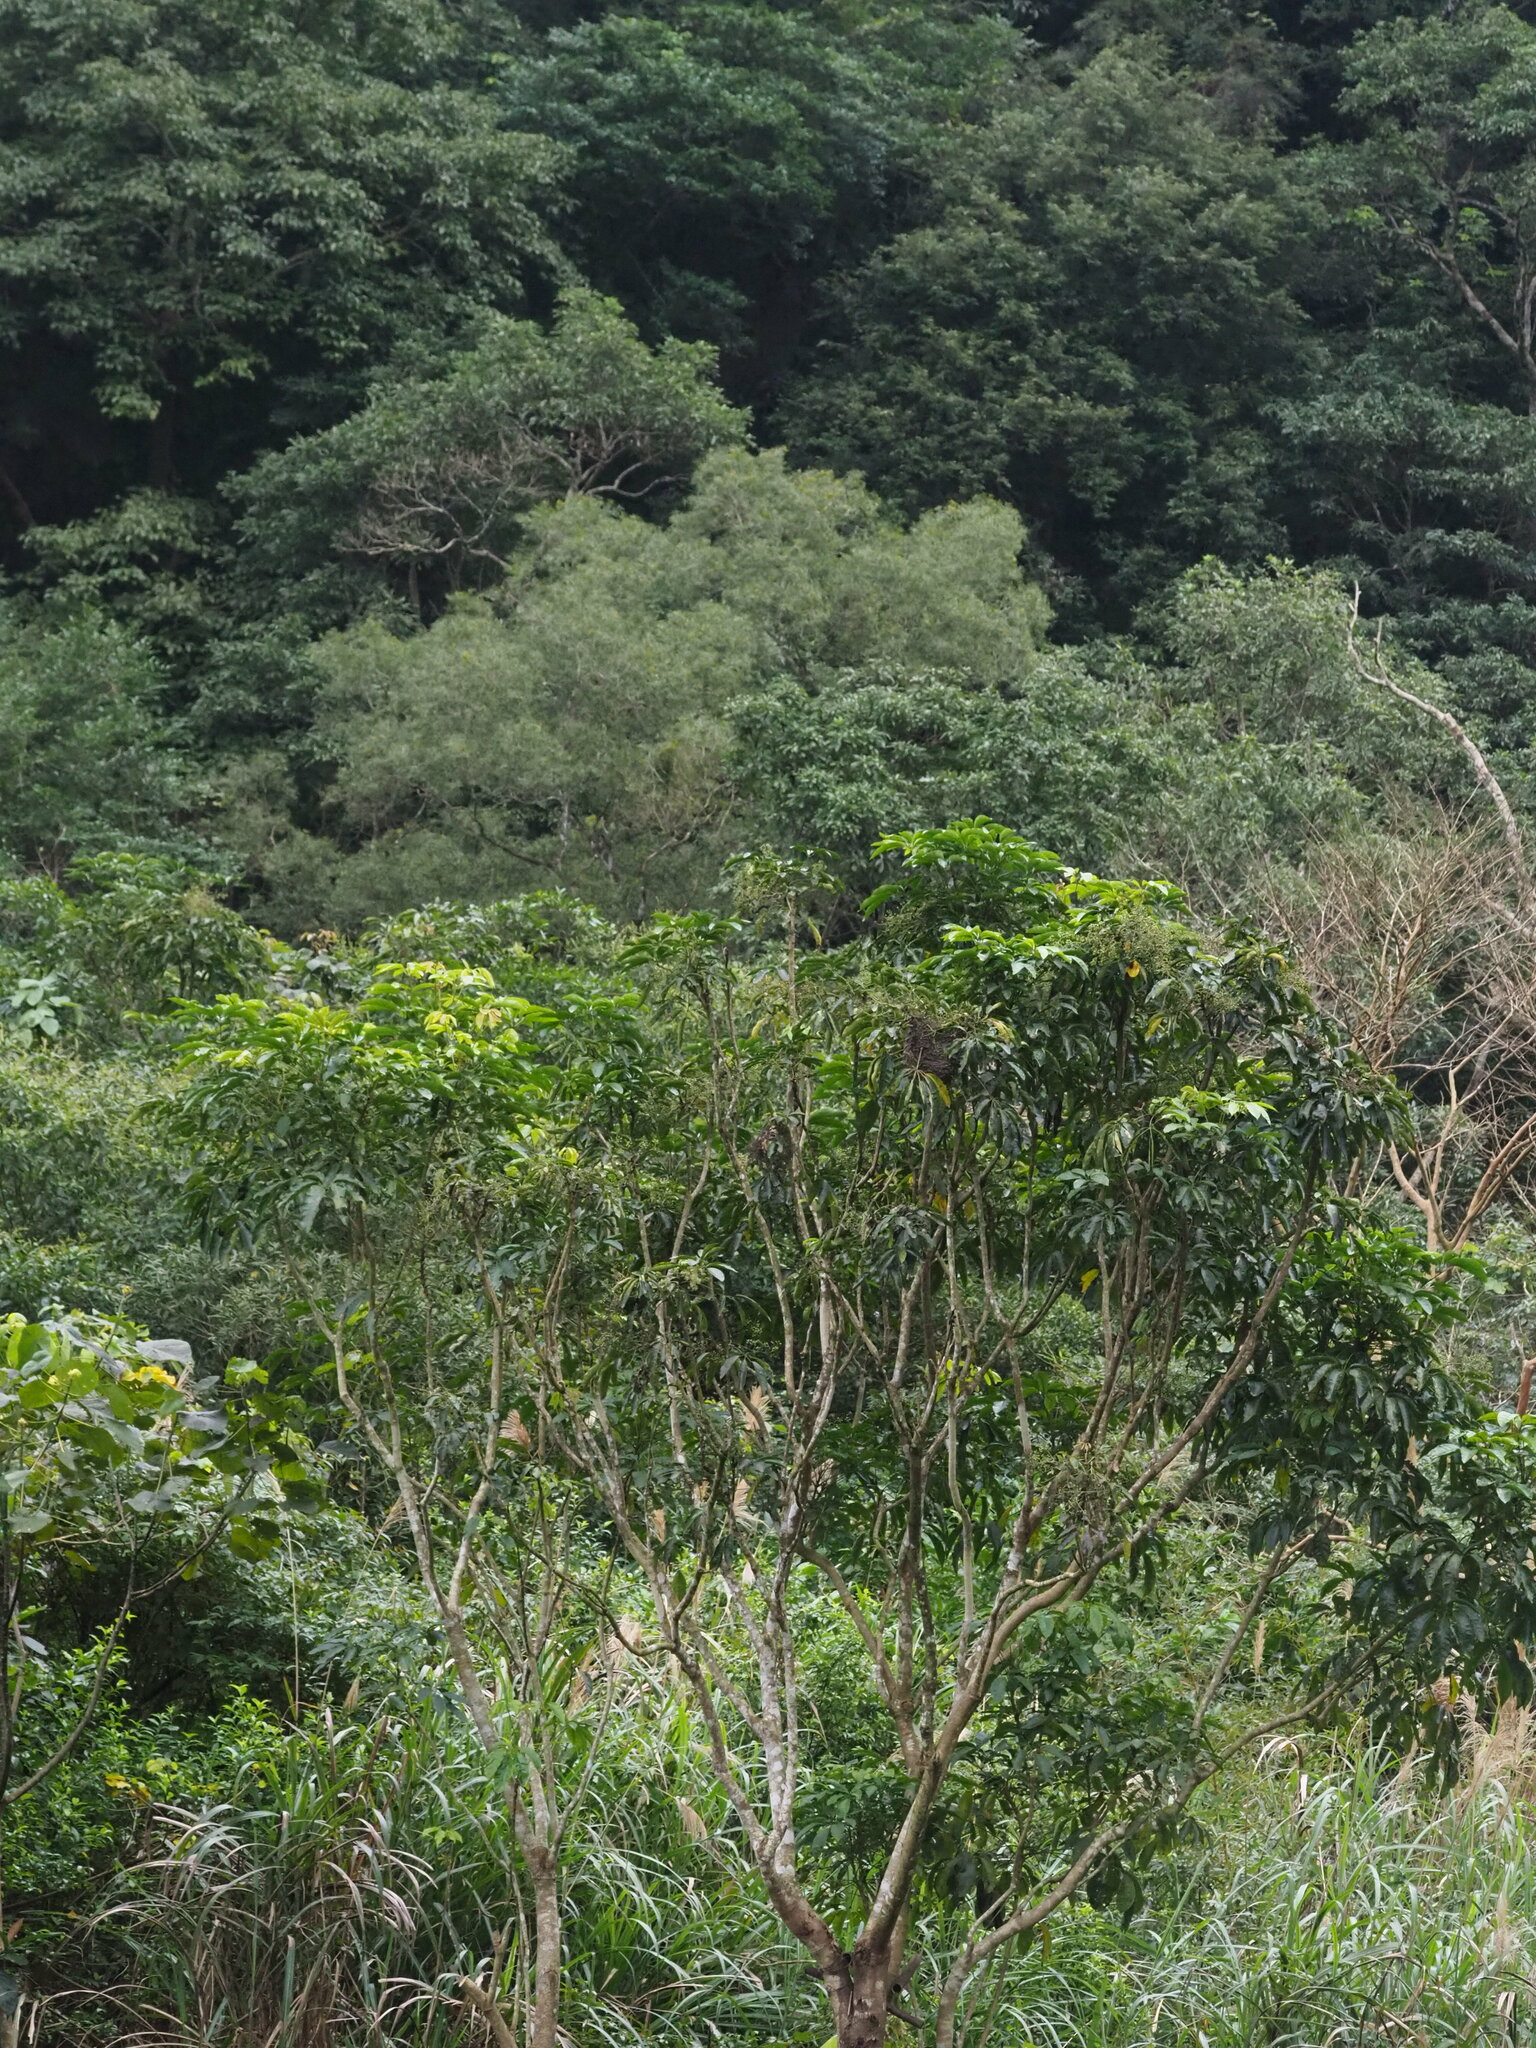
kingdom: Plantae
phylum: Tracheophyta
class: Magnoliopsida
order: Apiales
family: Araliaceae
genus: Heptapleurum
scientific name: Heptapleurum heptaphyllum
